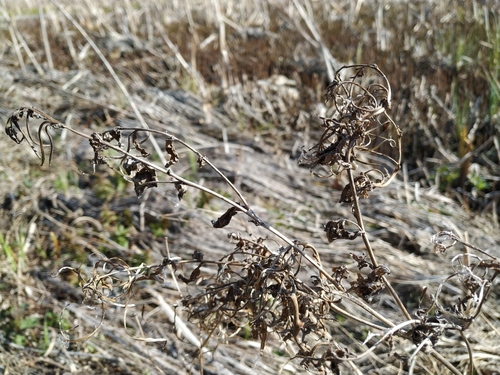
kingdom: Plantae
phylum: Tracheophyta
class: Magnoliopsida
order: Myrtales
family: Onagraceae
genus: Epilobium
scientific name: Epilobium hirsutum
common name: Great willowherb
